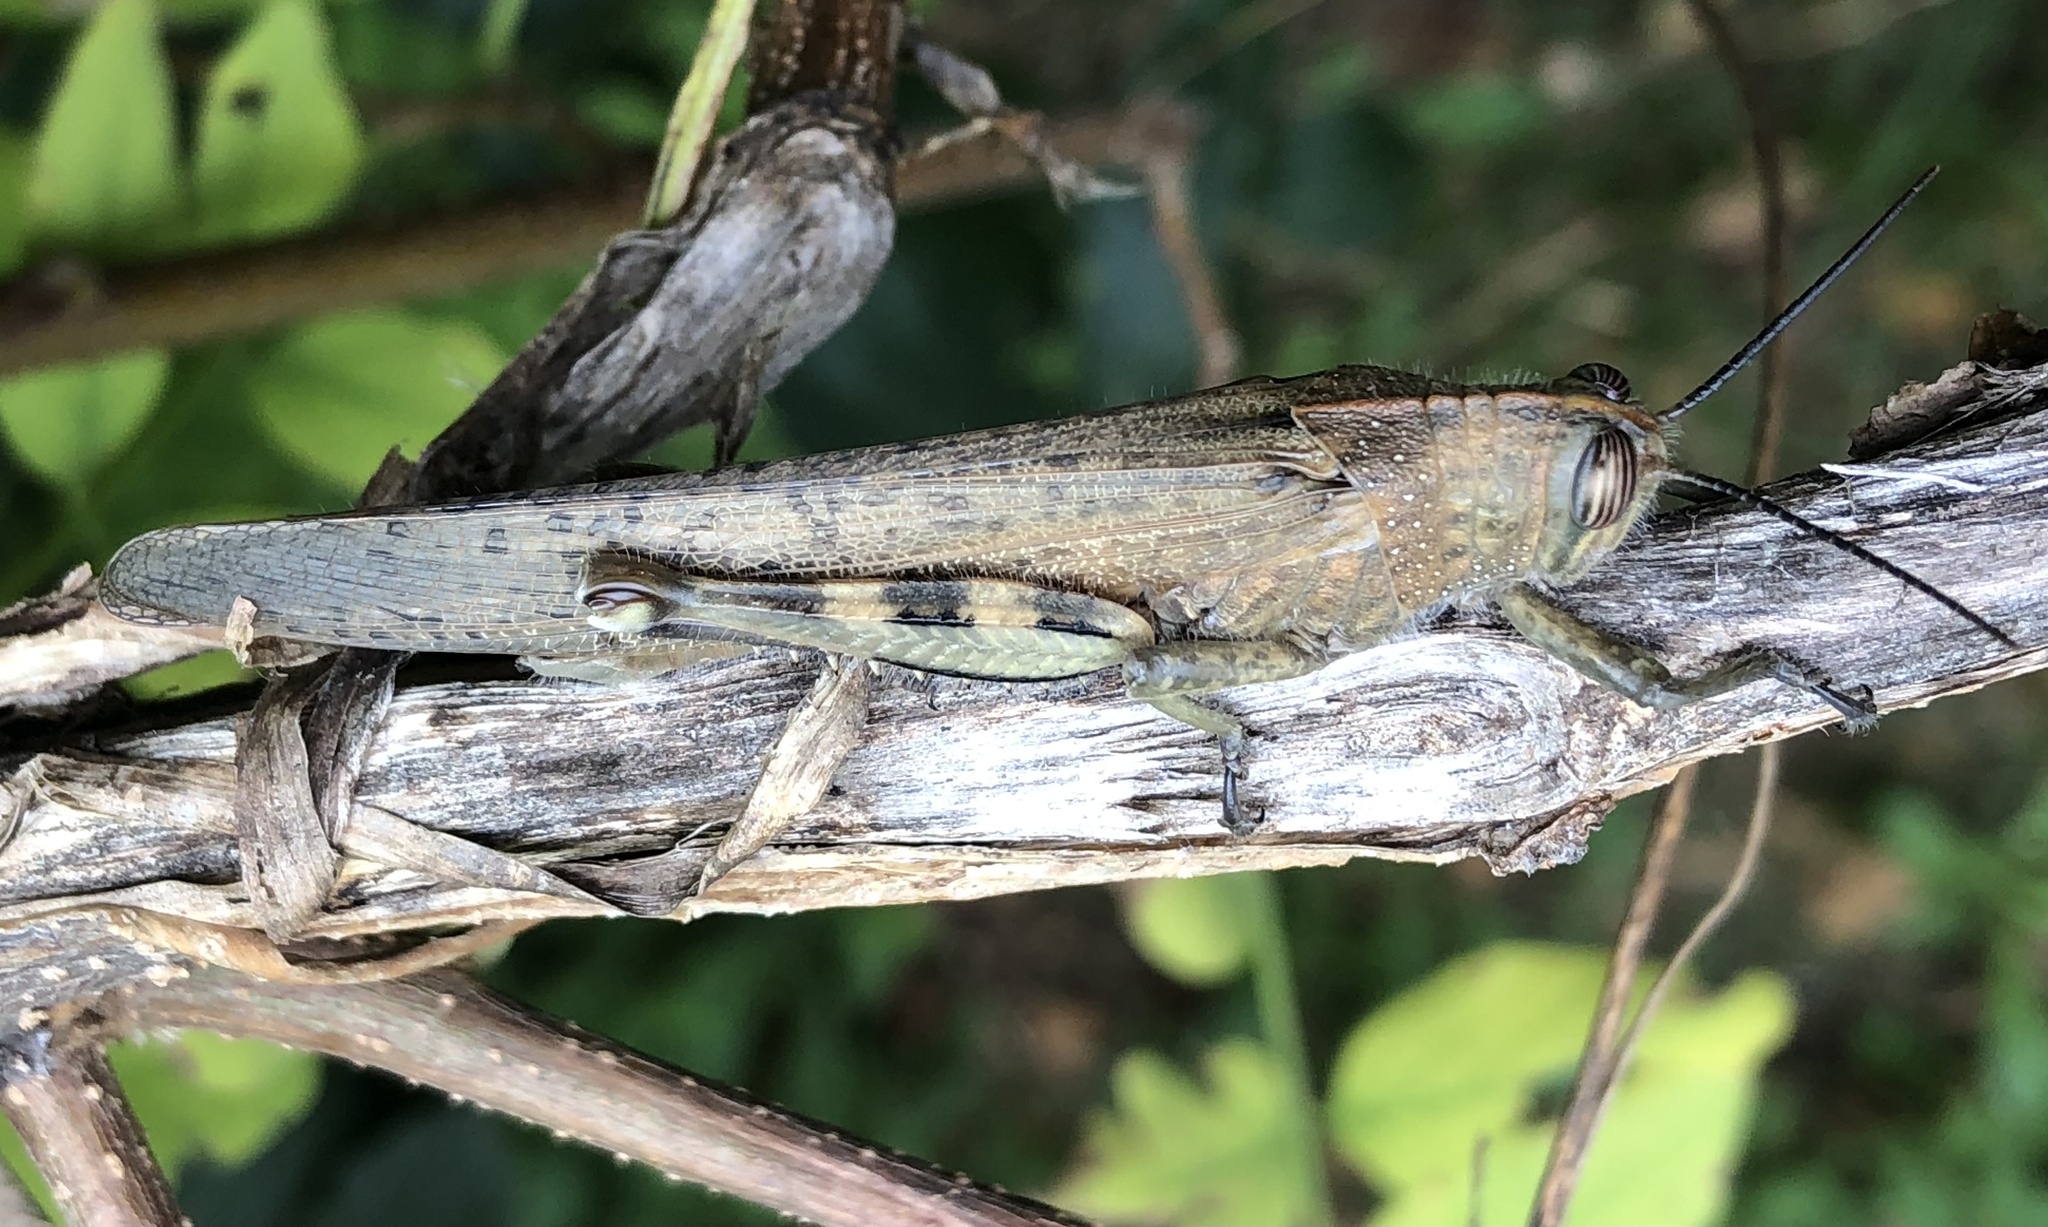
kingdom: Animalia
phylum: Arthropoda
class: Insecta
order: Orthoptera
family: Acrididae
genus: Anacridium
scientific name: Anacridium aegyptium
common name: Egyptian grasshopper
